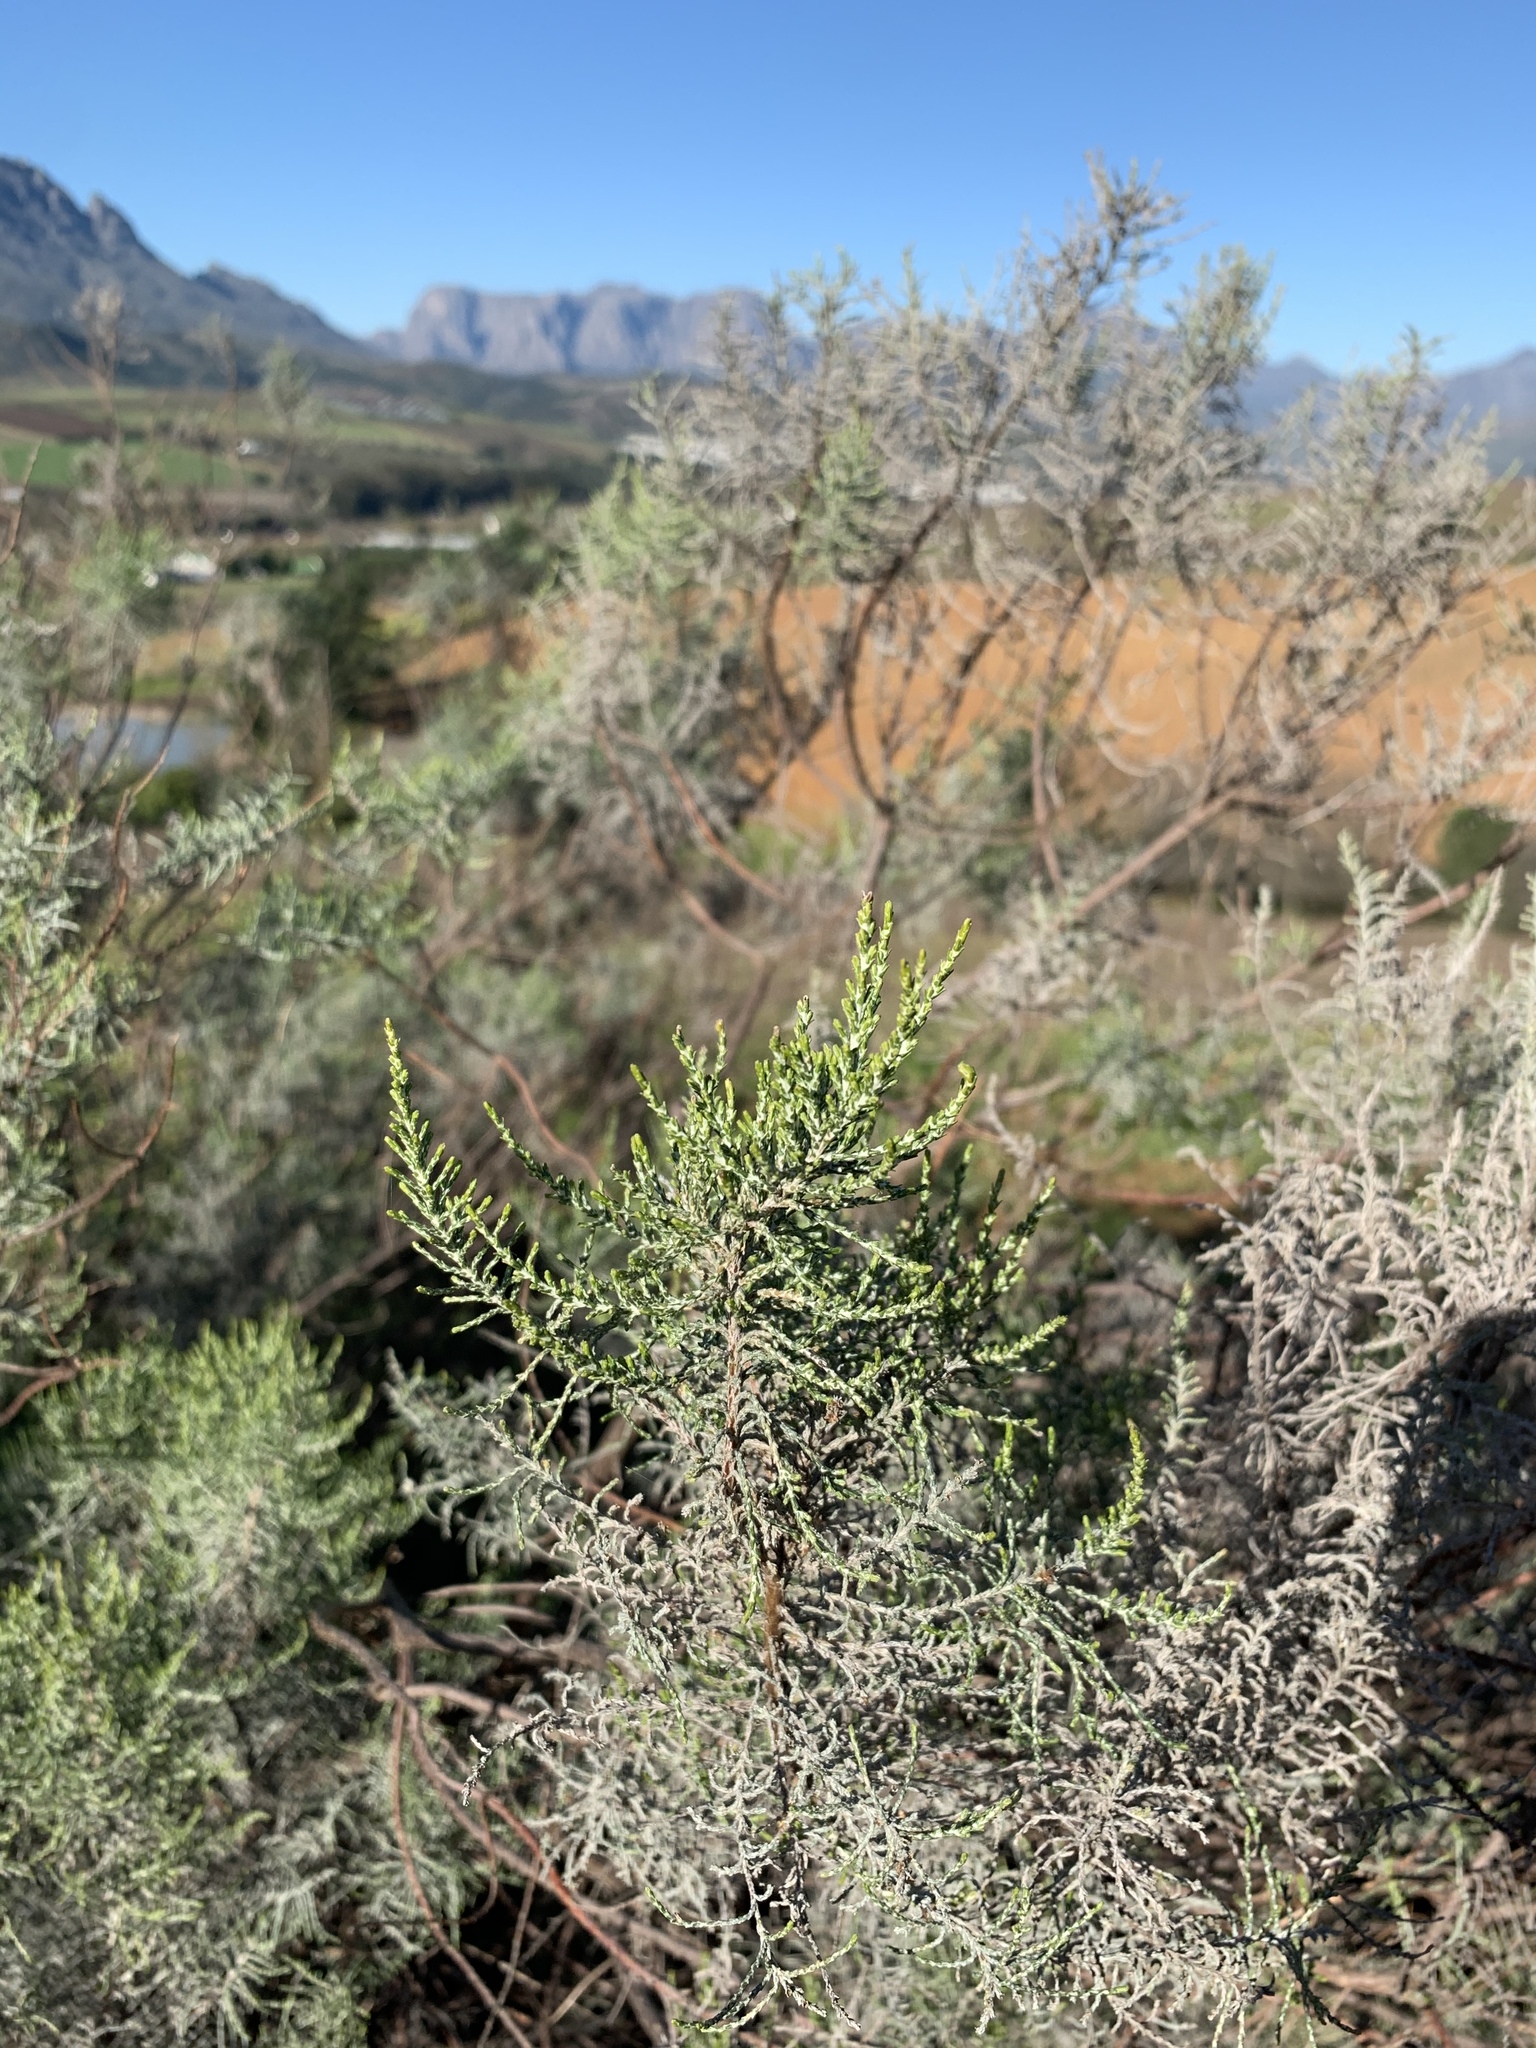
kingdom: Plantae
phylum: Tracheophyta
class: Magnoliopsida
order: Asterales
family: Asteraceae
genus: Dicerothamnus
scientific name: Dicerothamnus rhinocerotis
